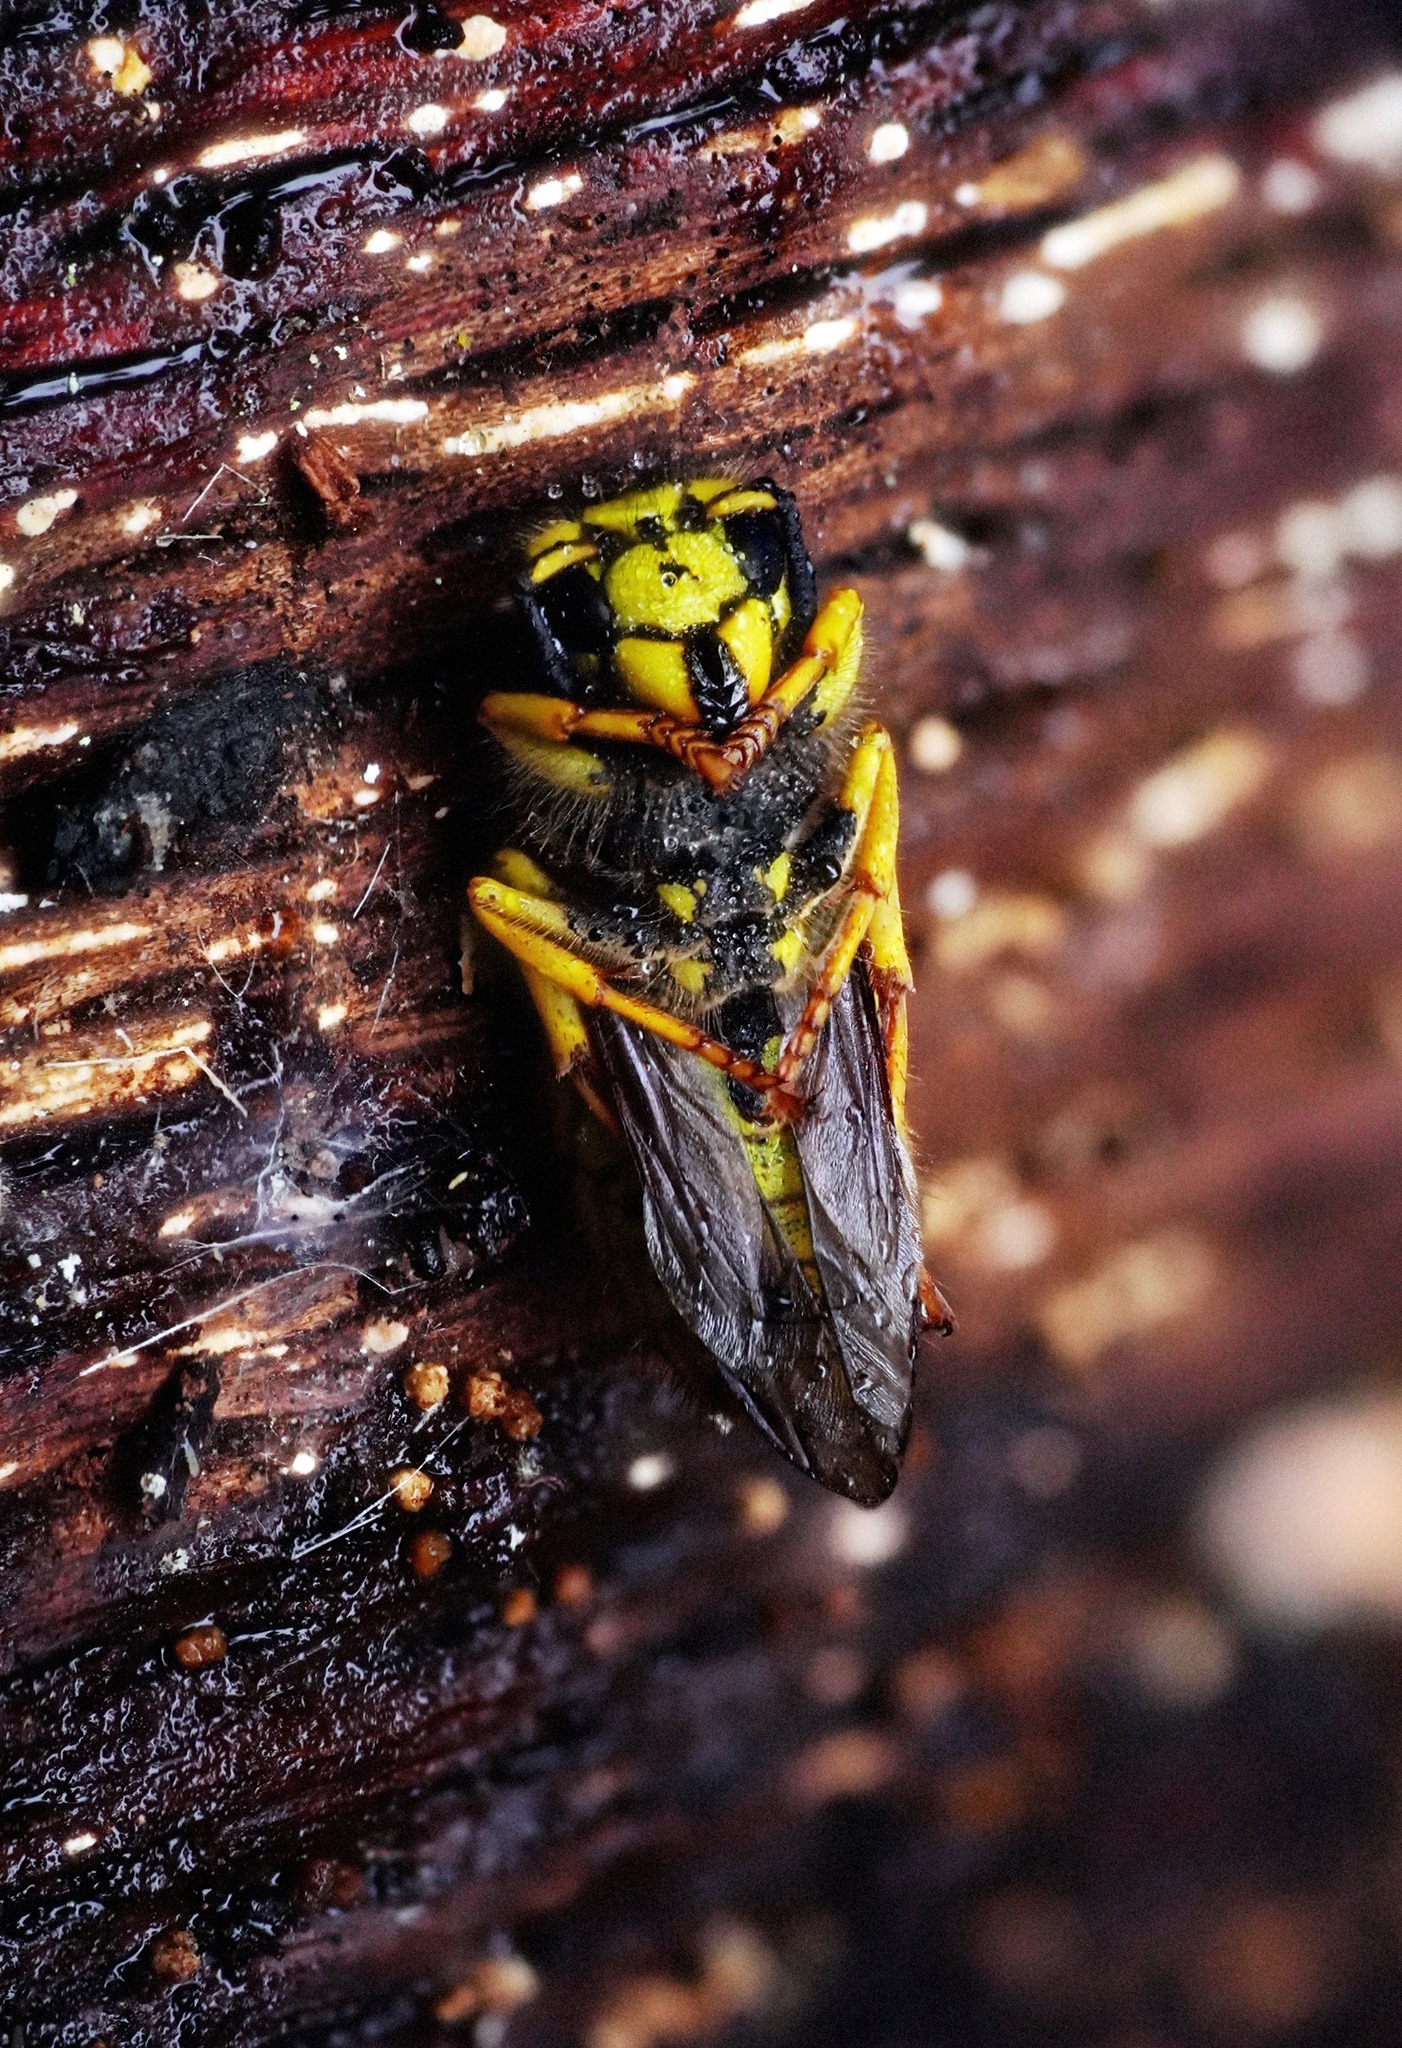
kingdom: Animalia
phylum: Arthropoda
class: Insecta
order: Hymenoptera
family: Vespidae
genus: Vespula
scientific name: Vespula pensylvanica
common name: Western yellowjacket
